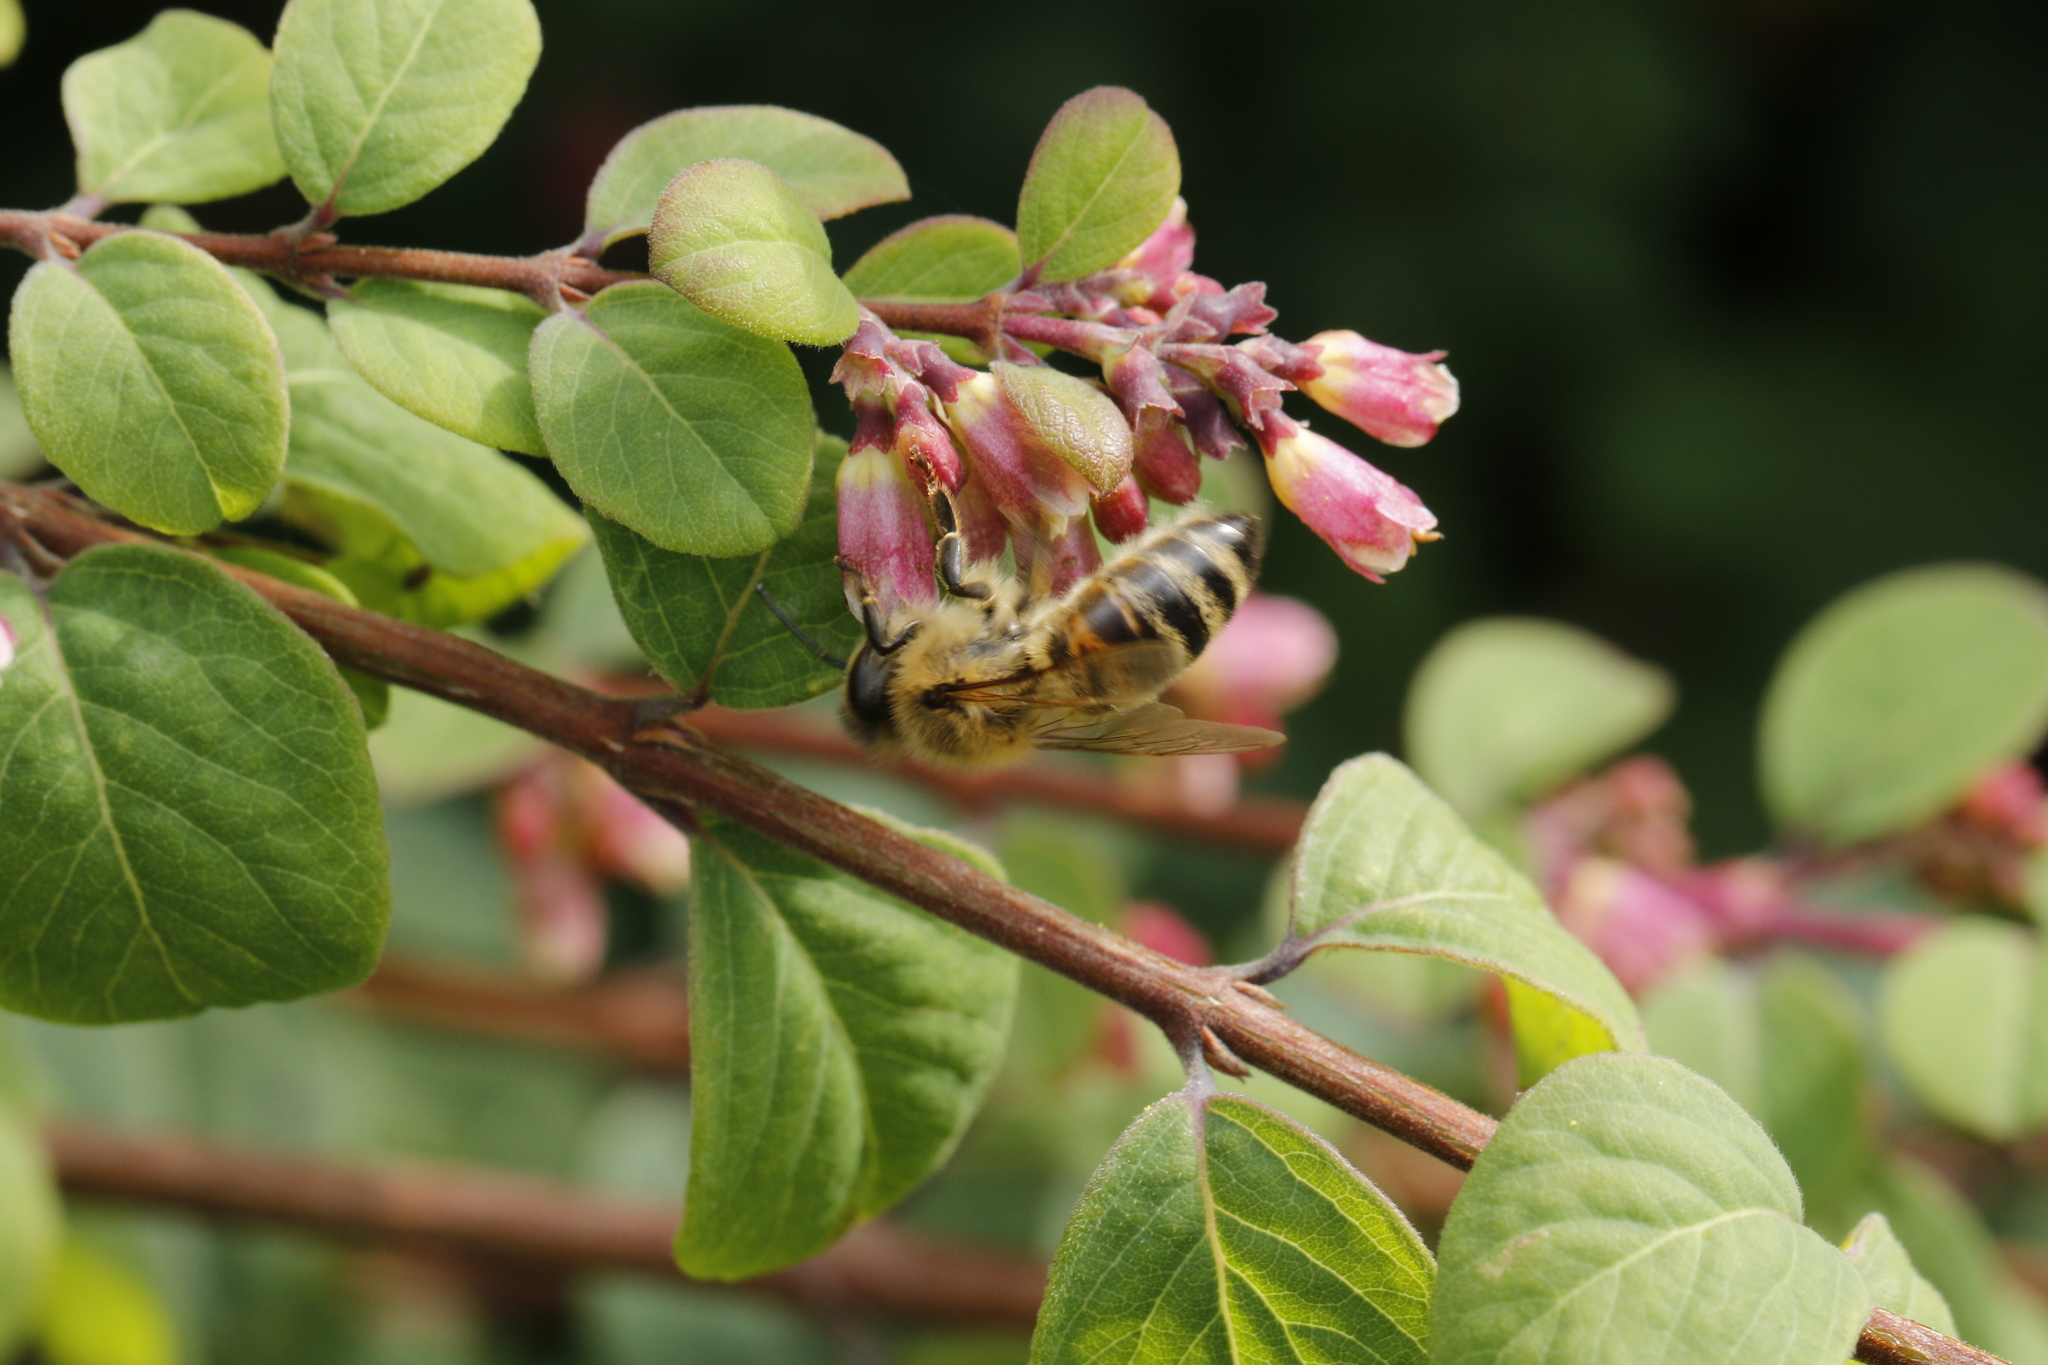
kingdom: Animalia
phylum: Arthropoda
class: Insecta
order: Hymenoptera
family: Apidae
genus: Apis
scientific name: Apis mellifera
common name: Honey bee
